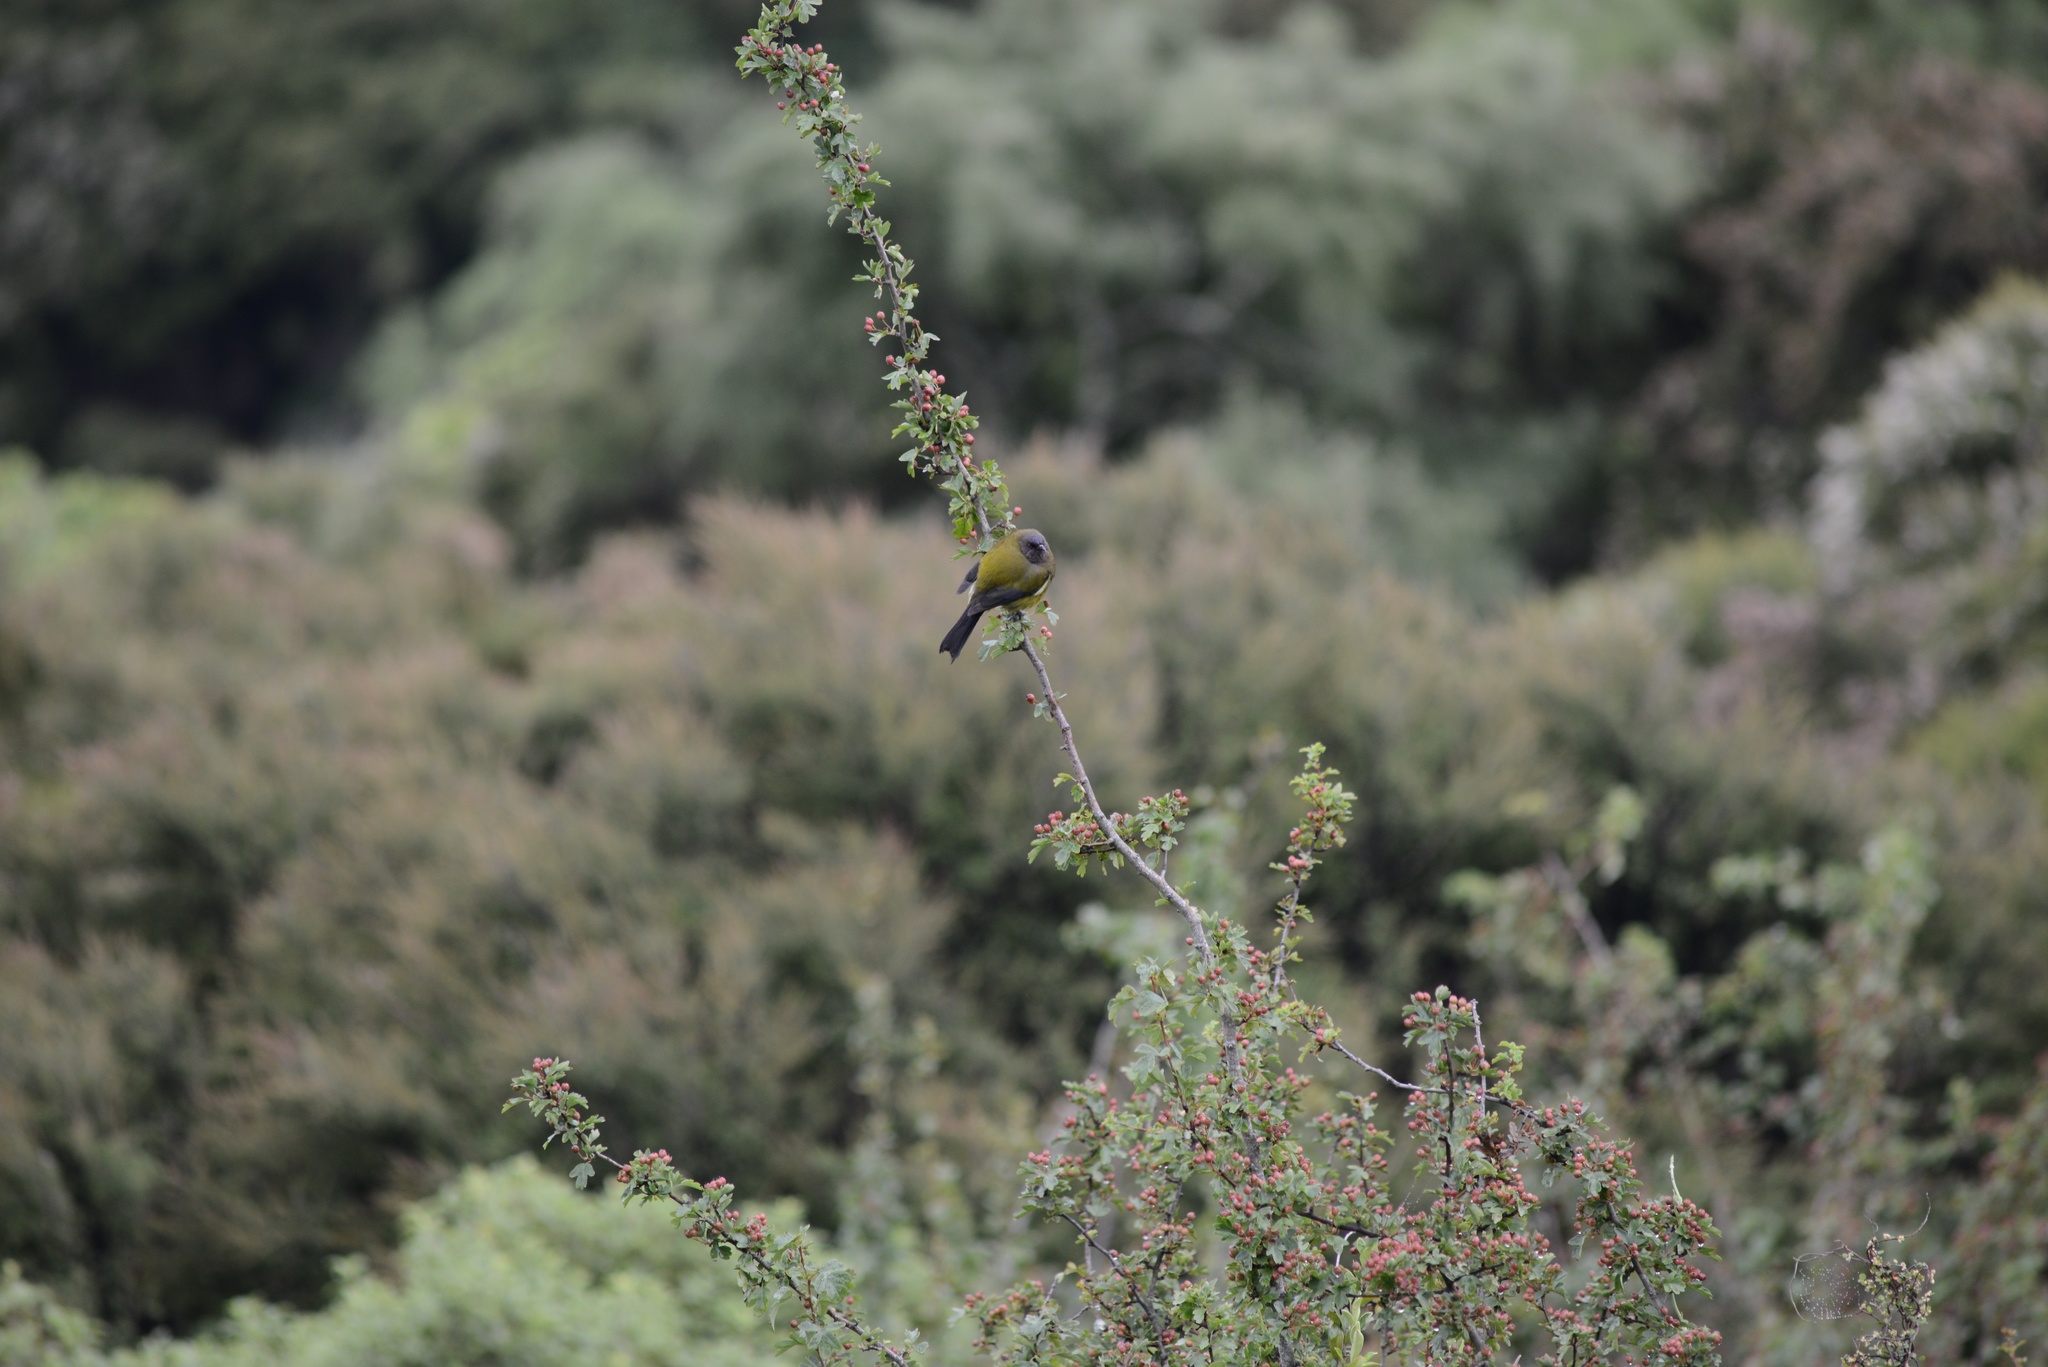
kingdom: Plantae
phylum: Tracheophyta
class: Magnoliopsida
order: Rosales
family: Rosaceae
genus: Crataegus
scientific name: Crataegus monogyna
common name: Hawthorn
